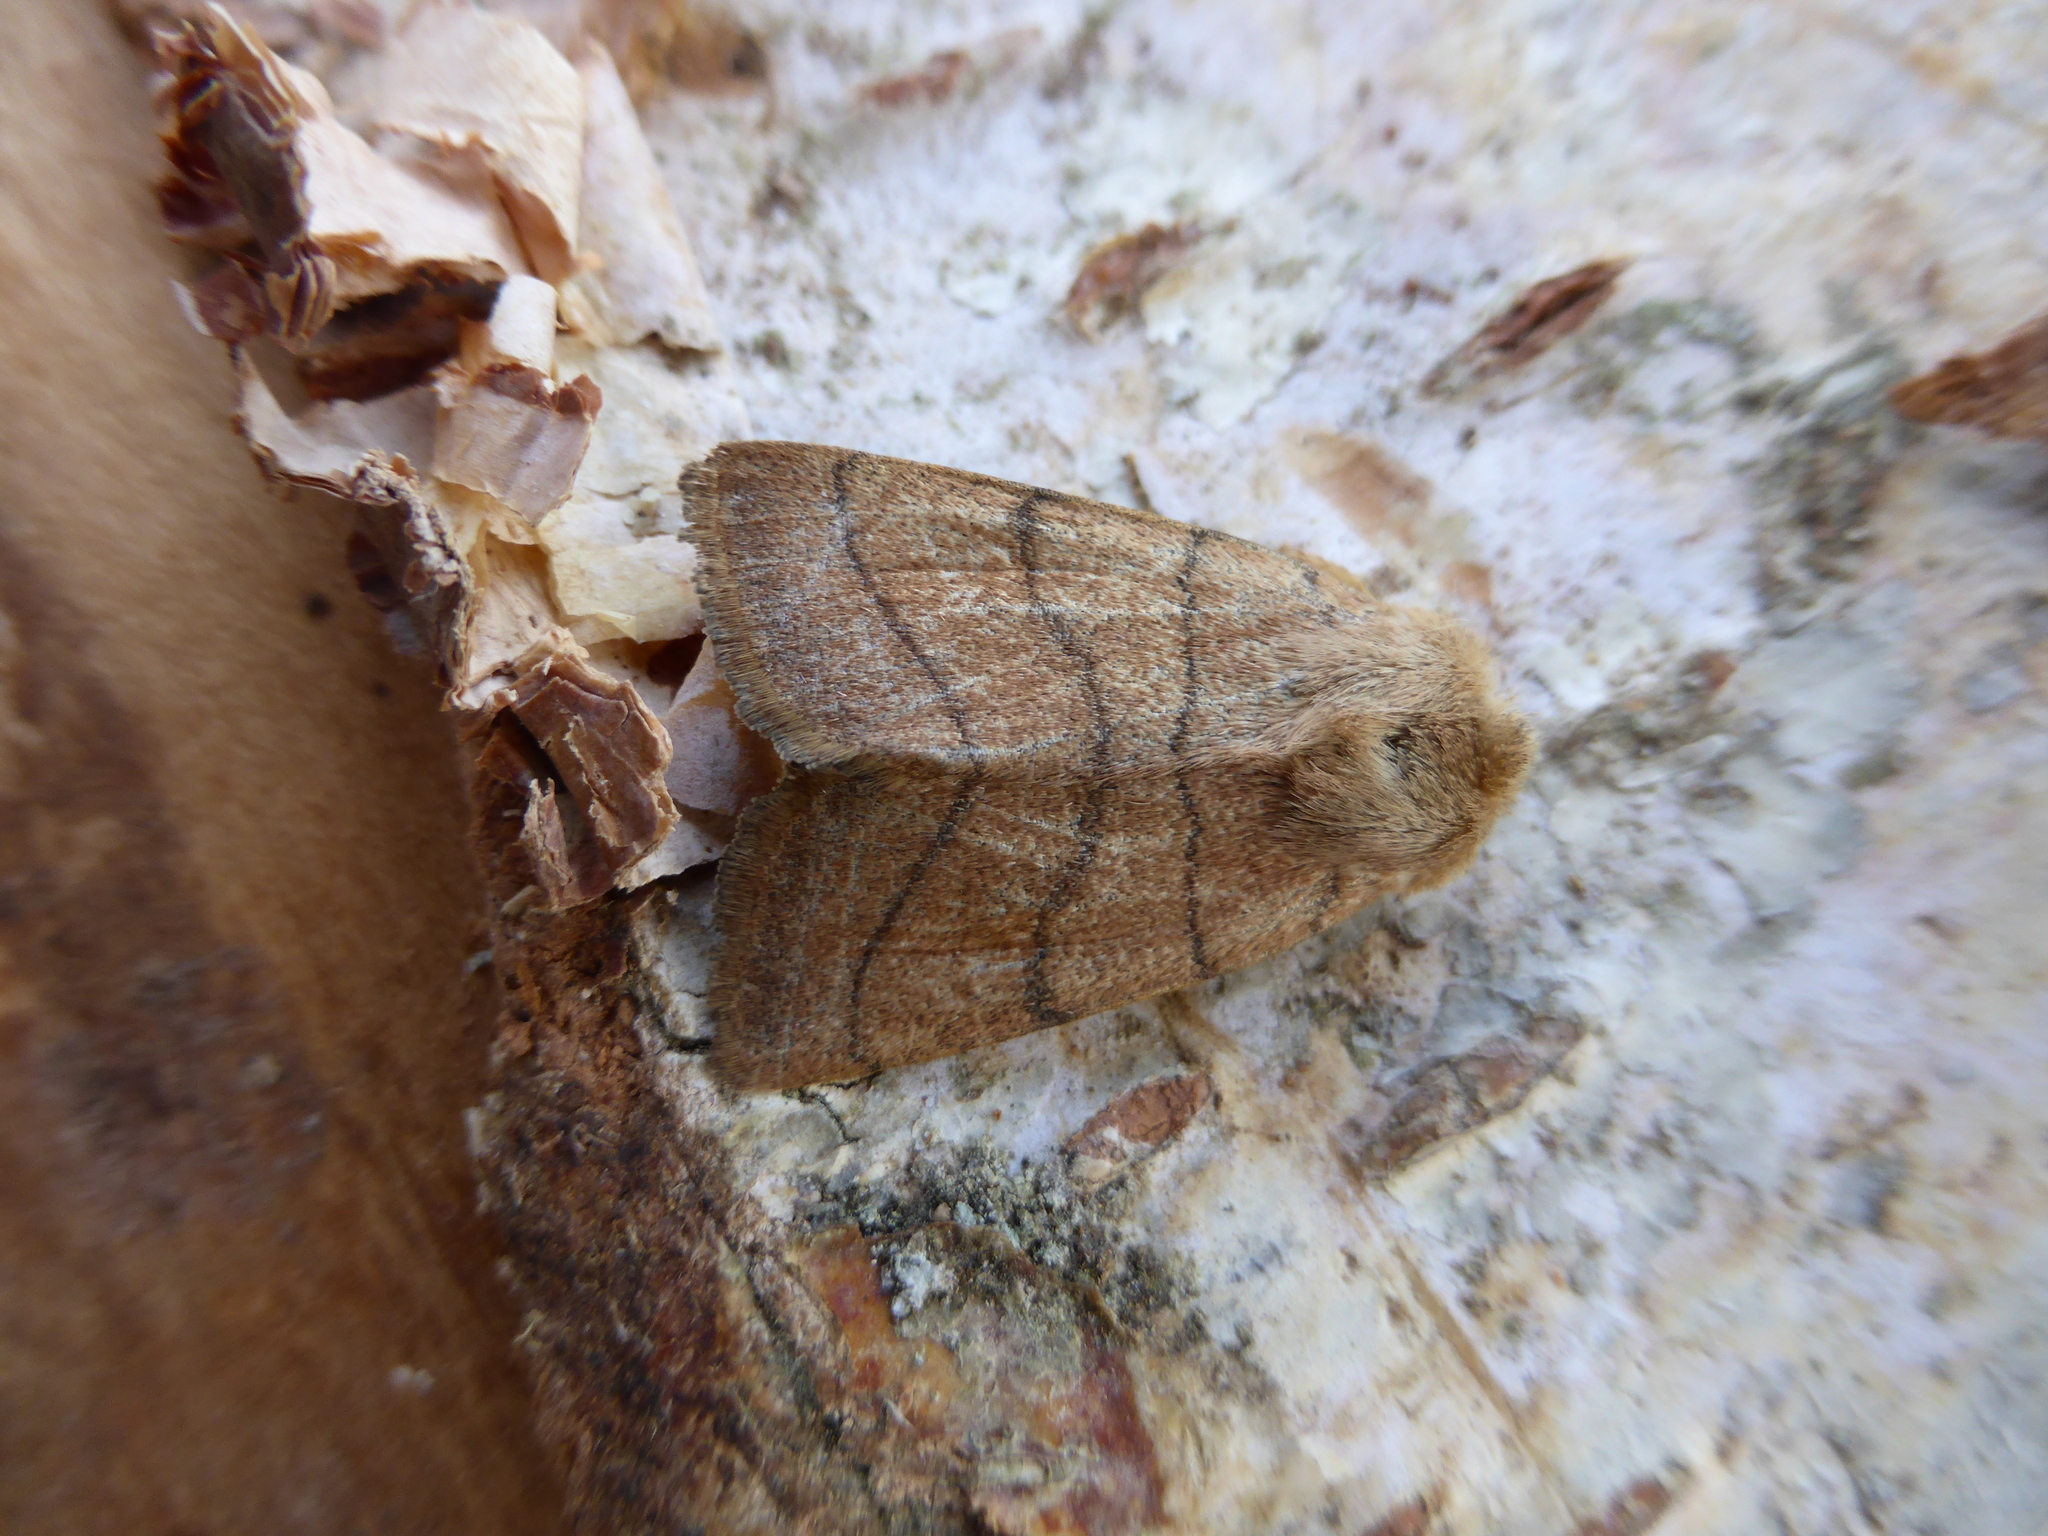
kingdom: Animalia
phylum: Arthropoda
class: Insecta
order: Lepidoptera
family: Noctuidae
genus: Charanyca
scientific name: Charanyca trigrammica
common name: Treble lines
